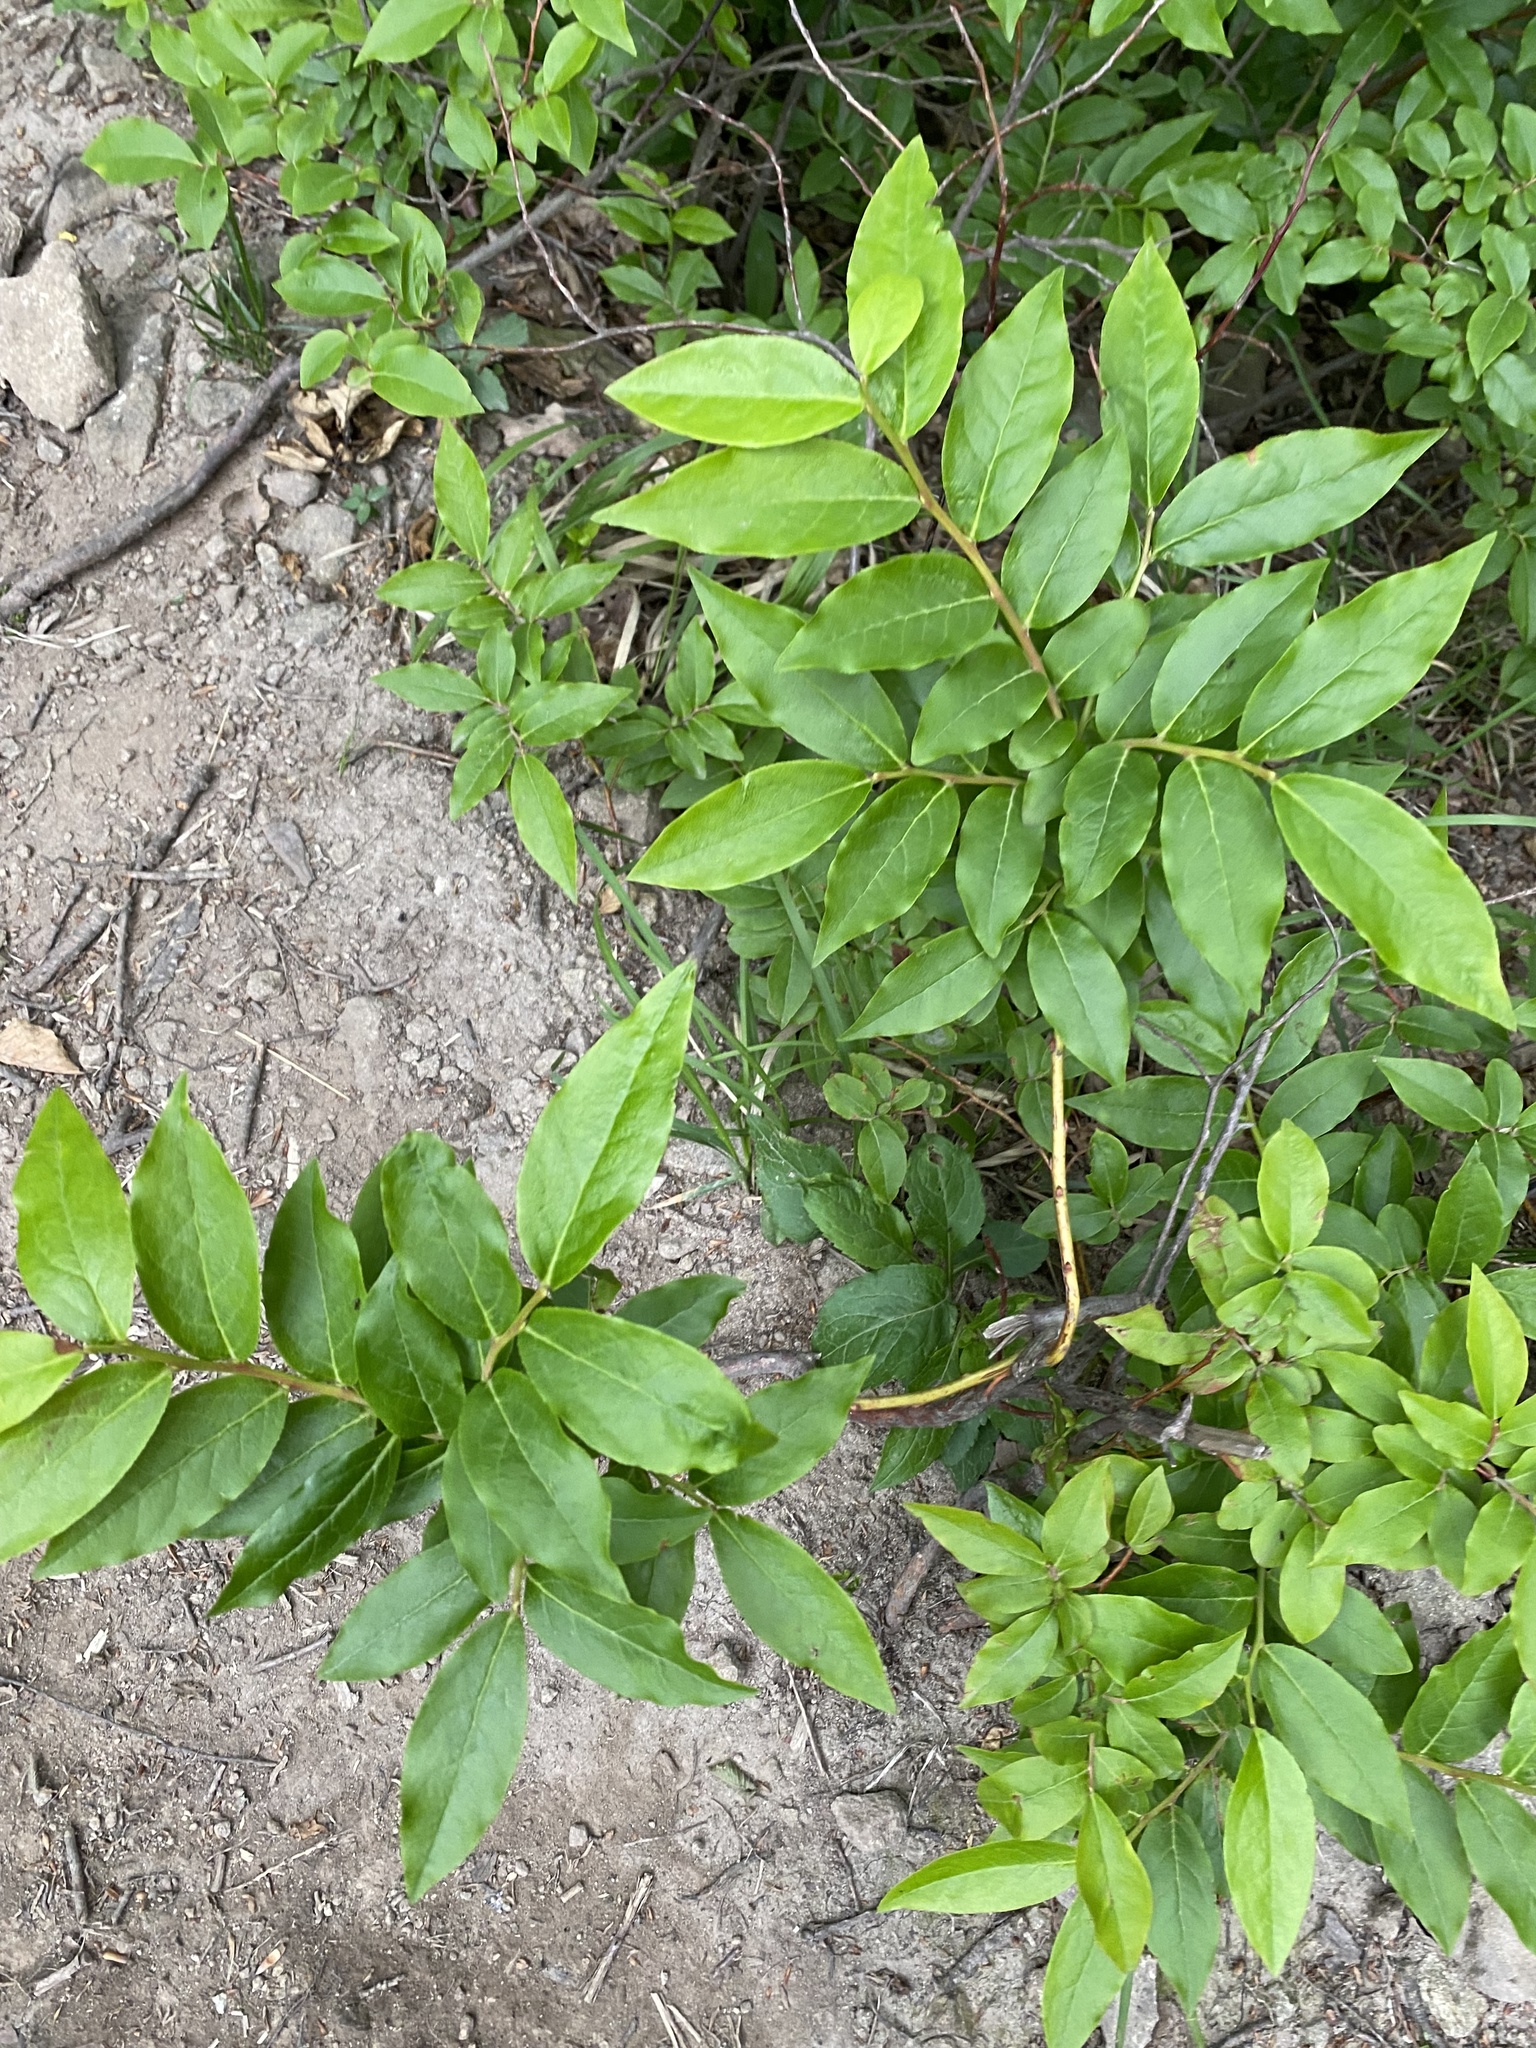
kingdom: Plantae
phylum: Tracheophyta
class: Magnoliopsida
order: Ericales
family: Ericaceae
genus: Vaccinium
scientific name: Vaccinium arctostaphylos
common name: Caucasian whortleberry
